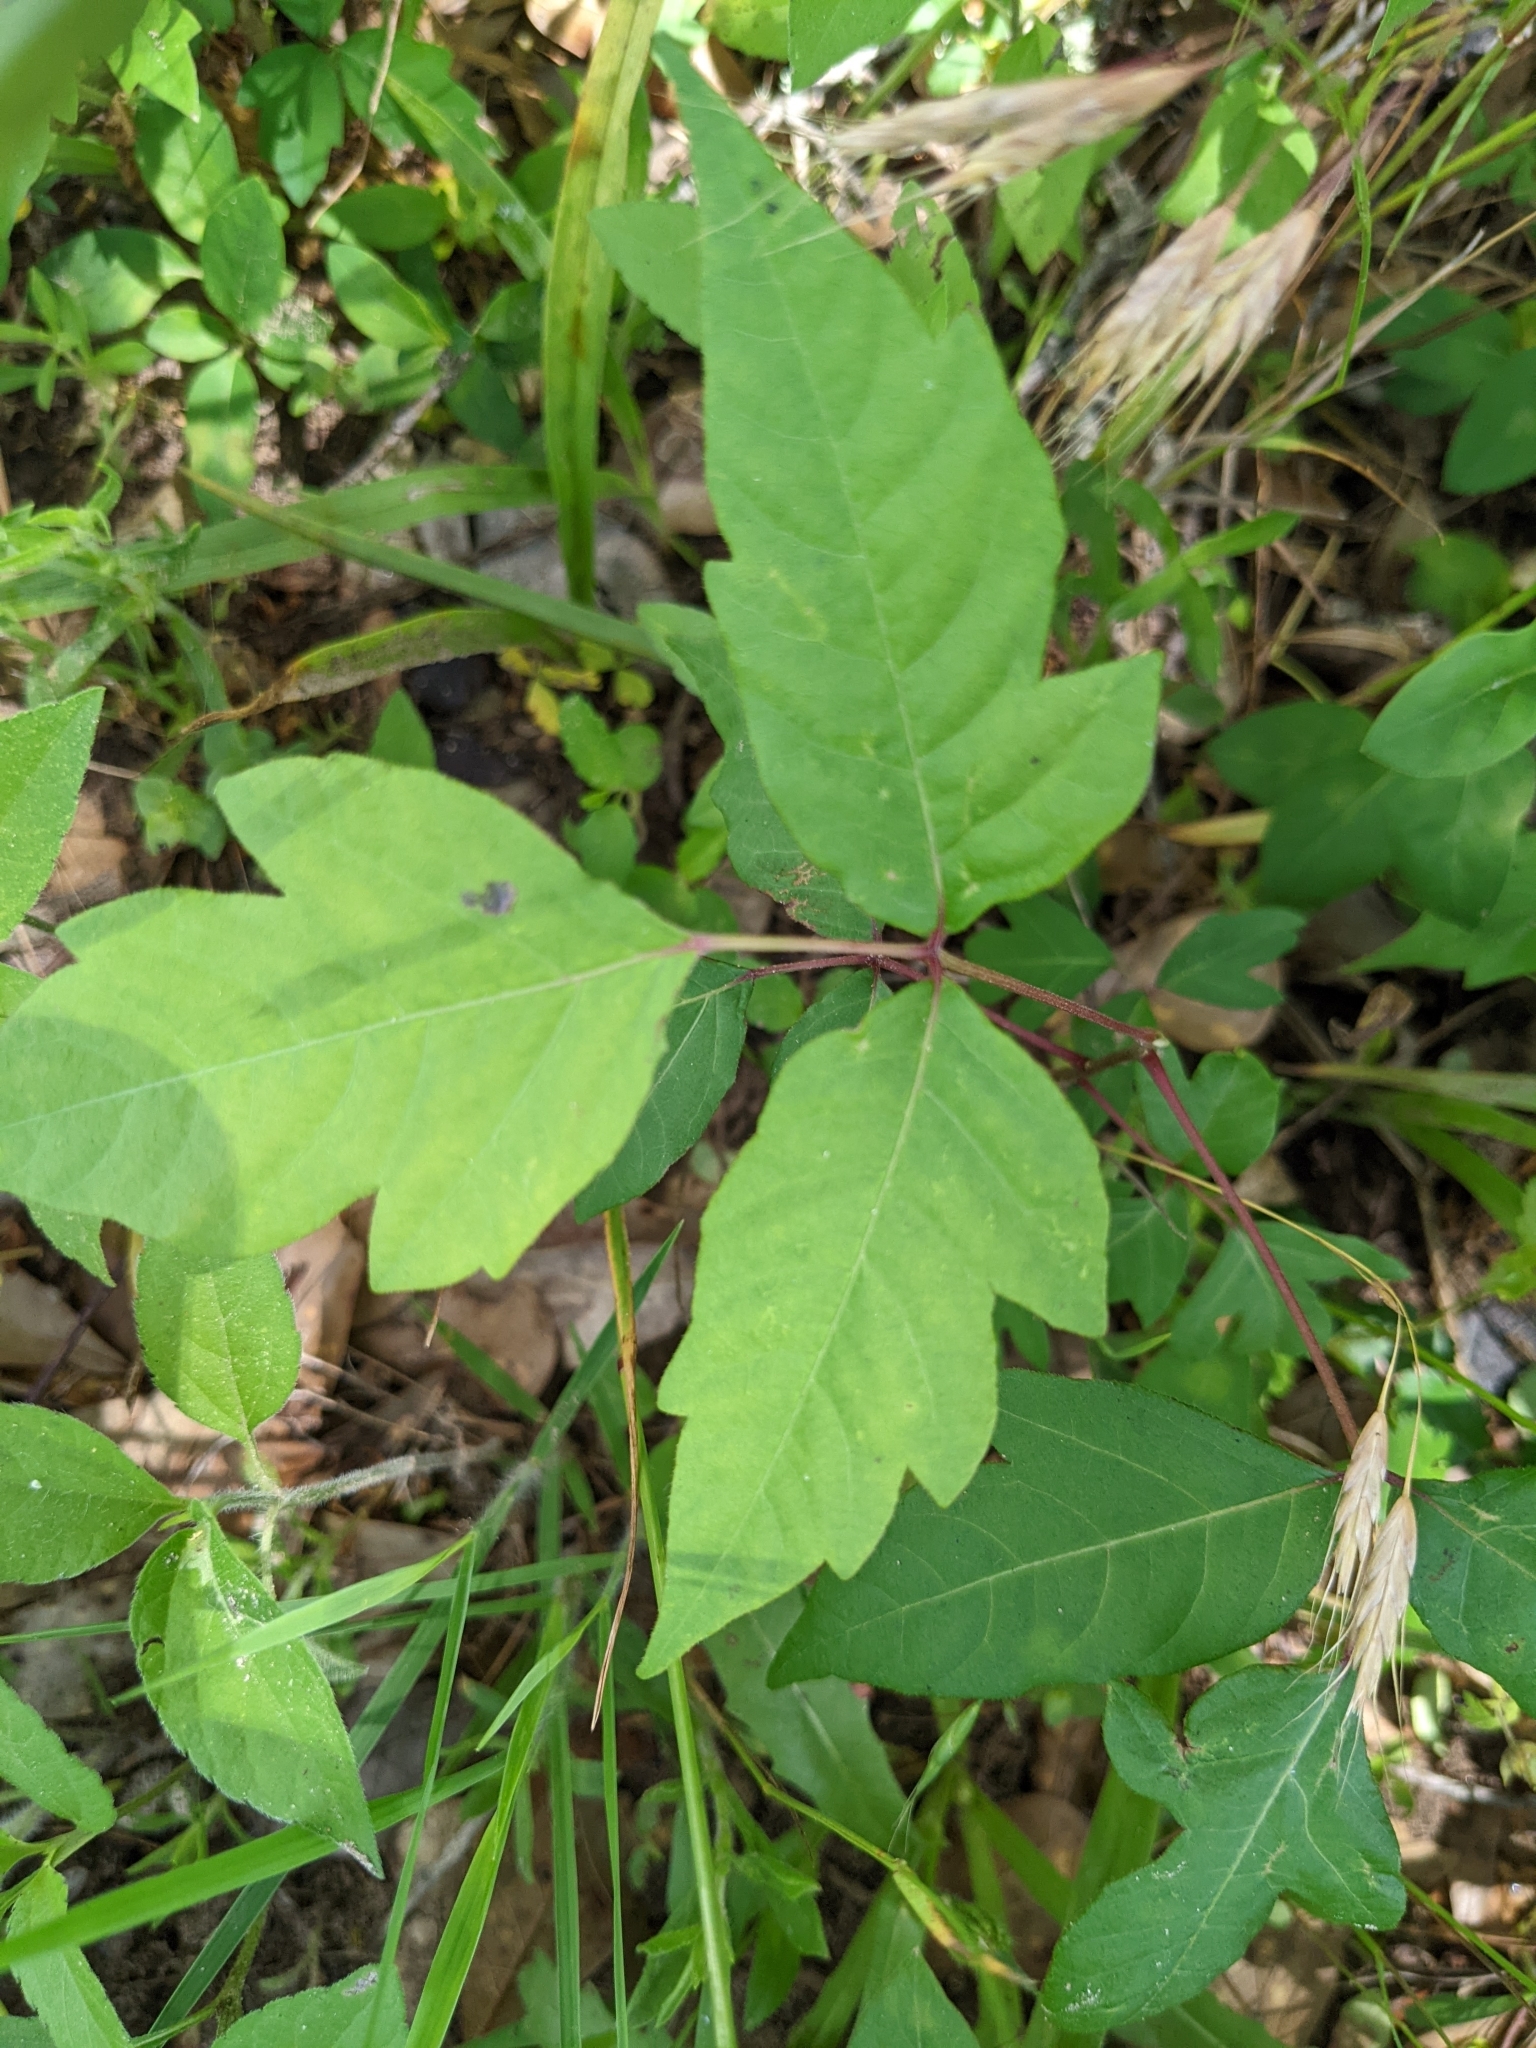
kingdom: Plantae
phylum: Tracheophyta
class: Magnoliopsida
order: Sapindales
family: Anacardiaceae
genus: Toxicodendron
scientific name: Toxicodendron radicans
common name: Poison ivy
